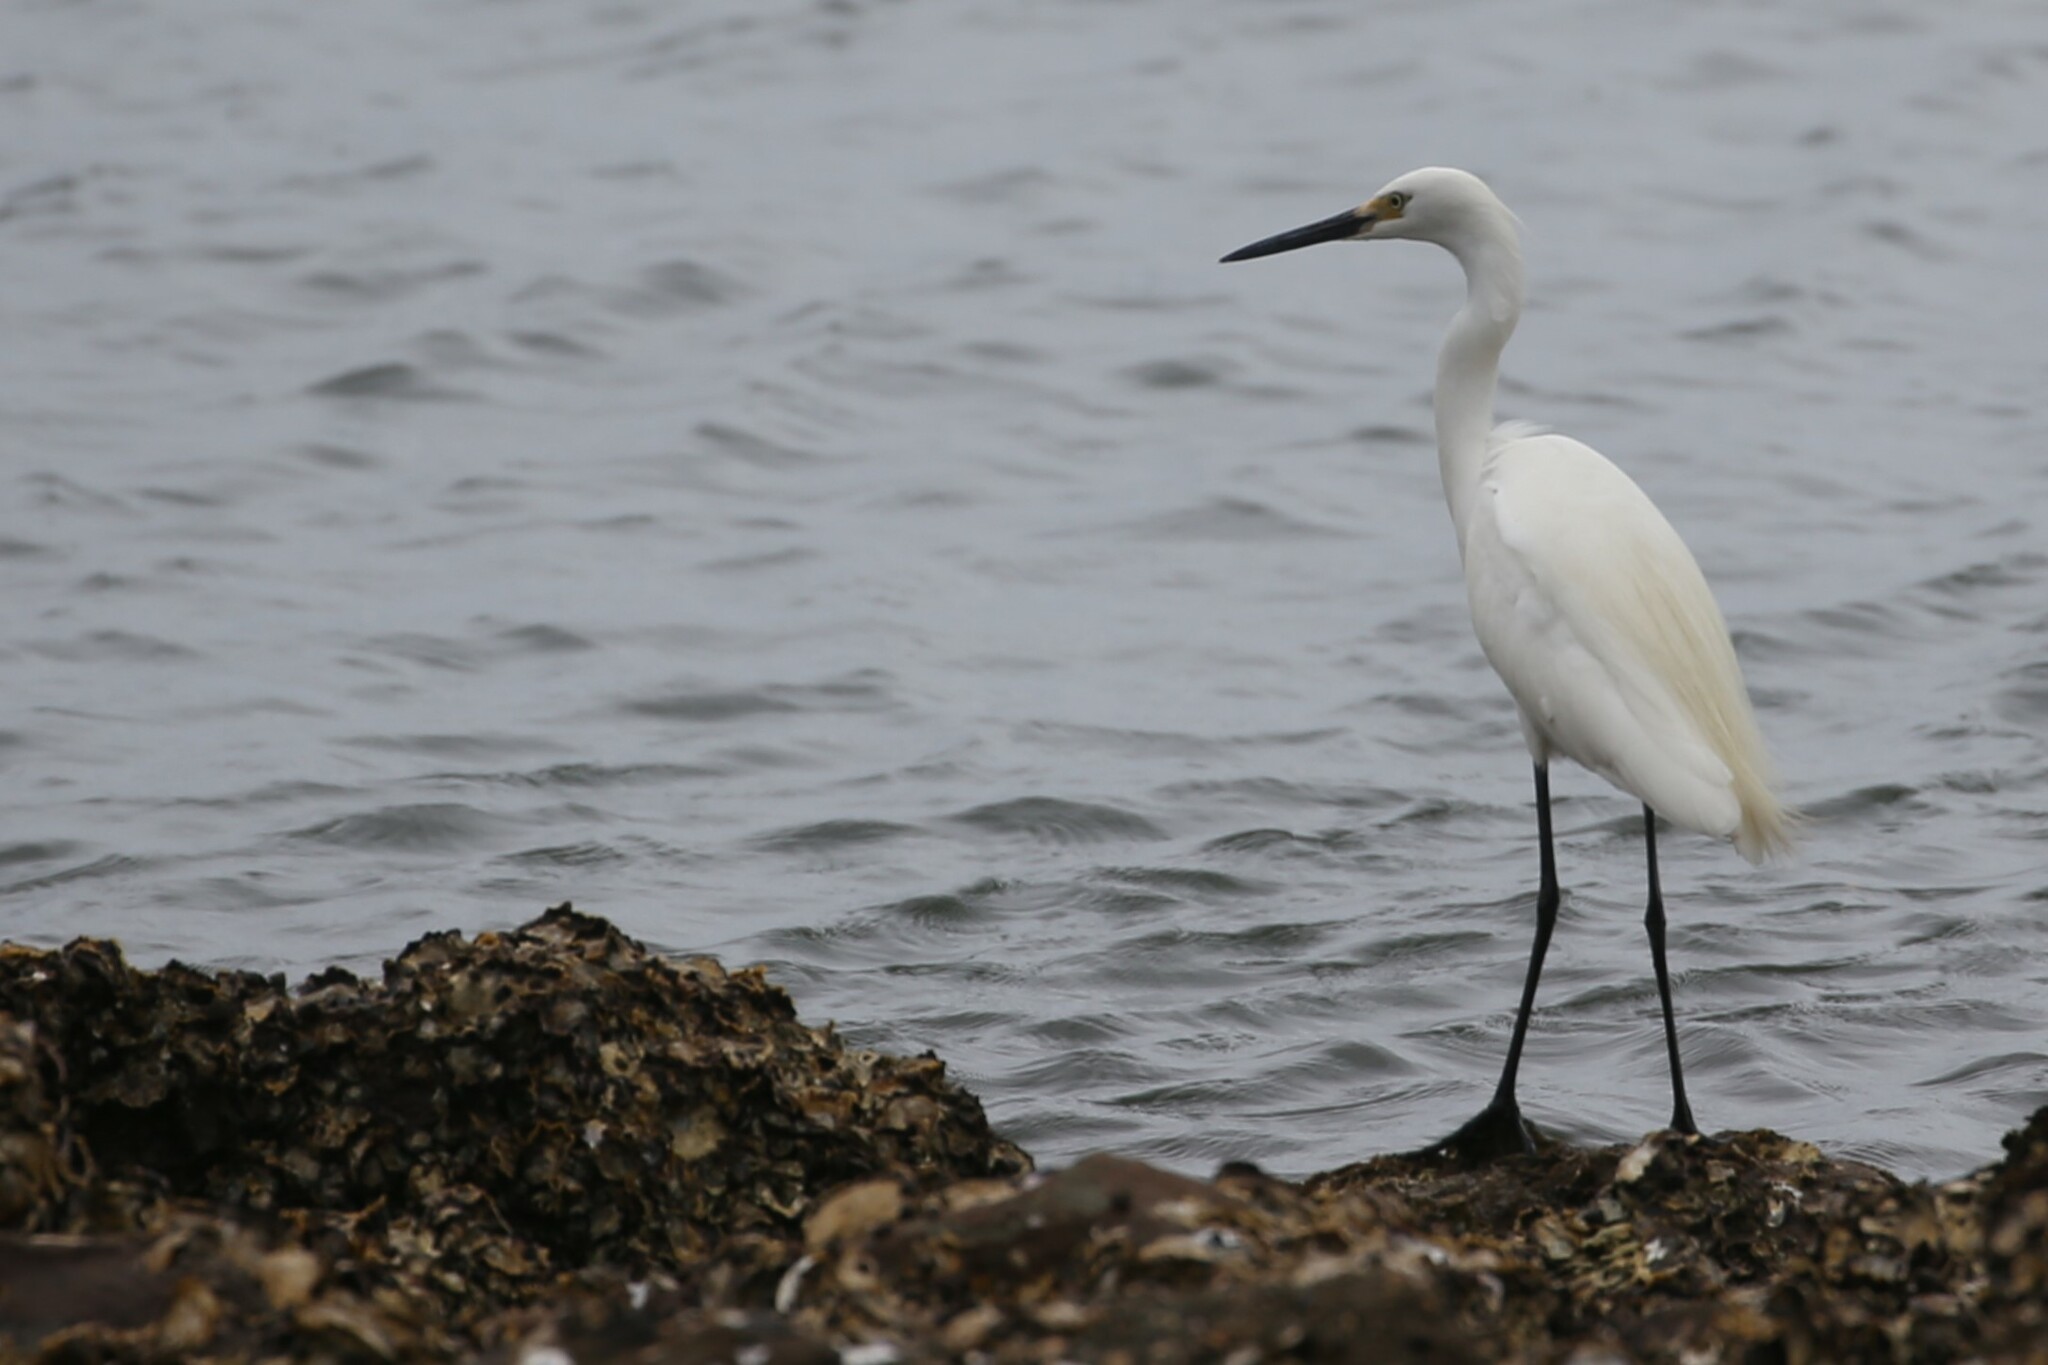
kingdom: Animalia
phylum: Chordata
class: Aves
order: Pelecaniformes
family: Ardeidae
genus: Egretta
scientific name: Egretta garzetta
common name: Little egret
